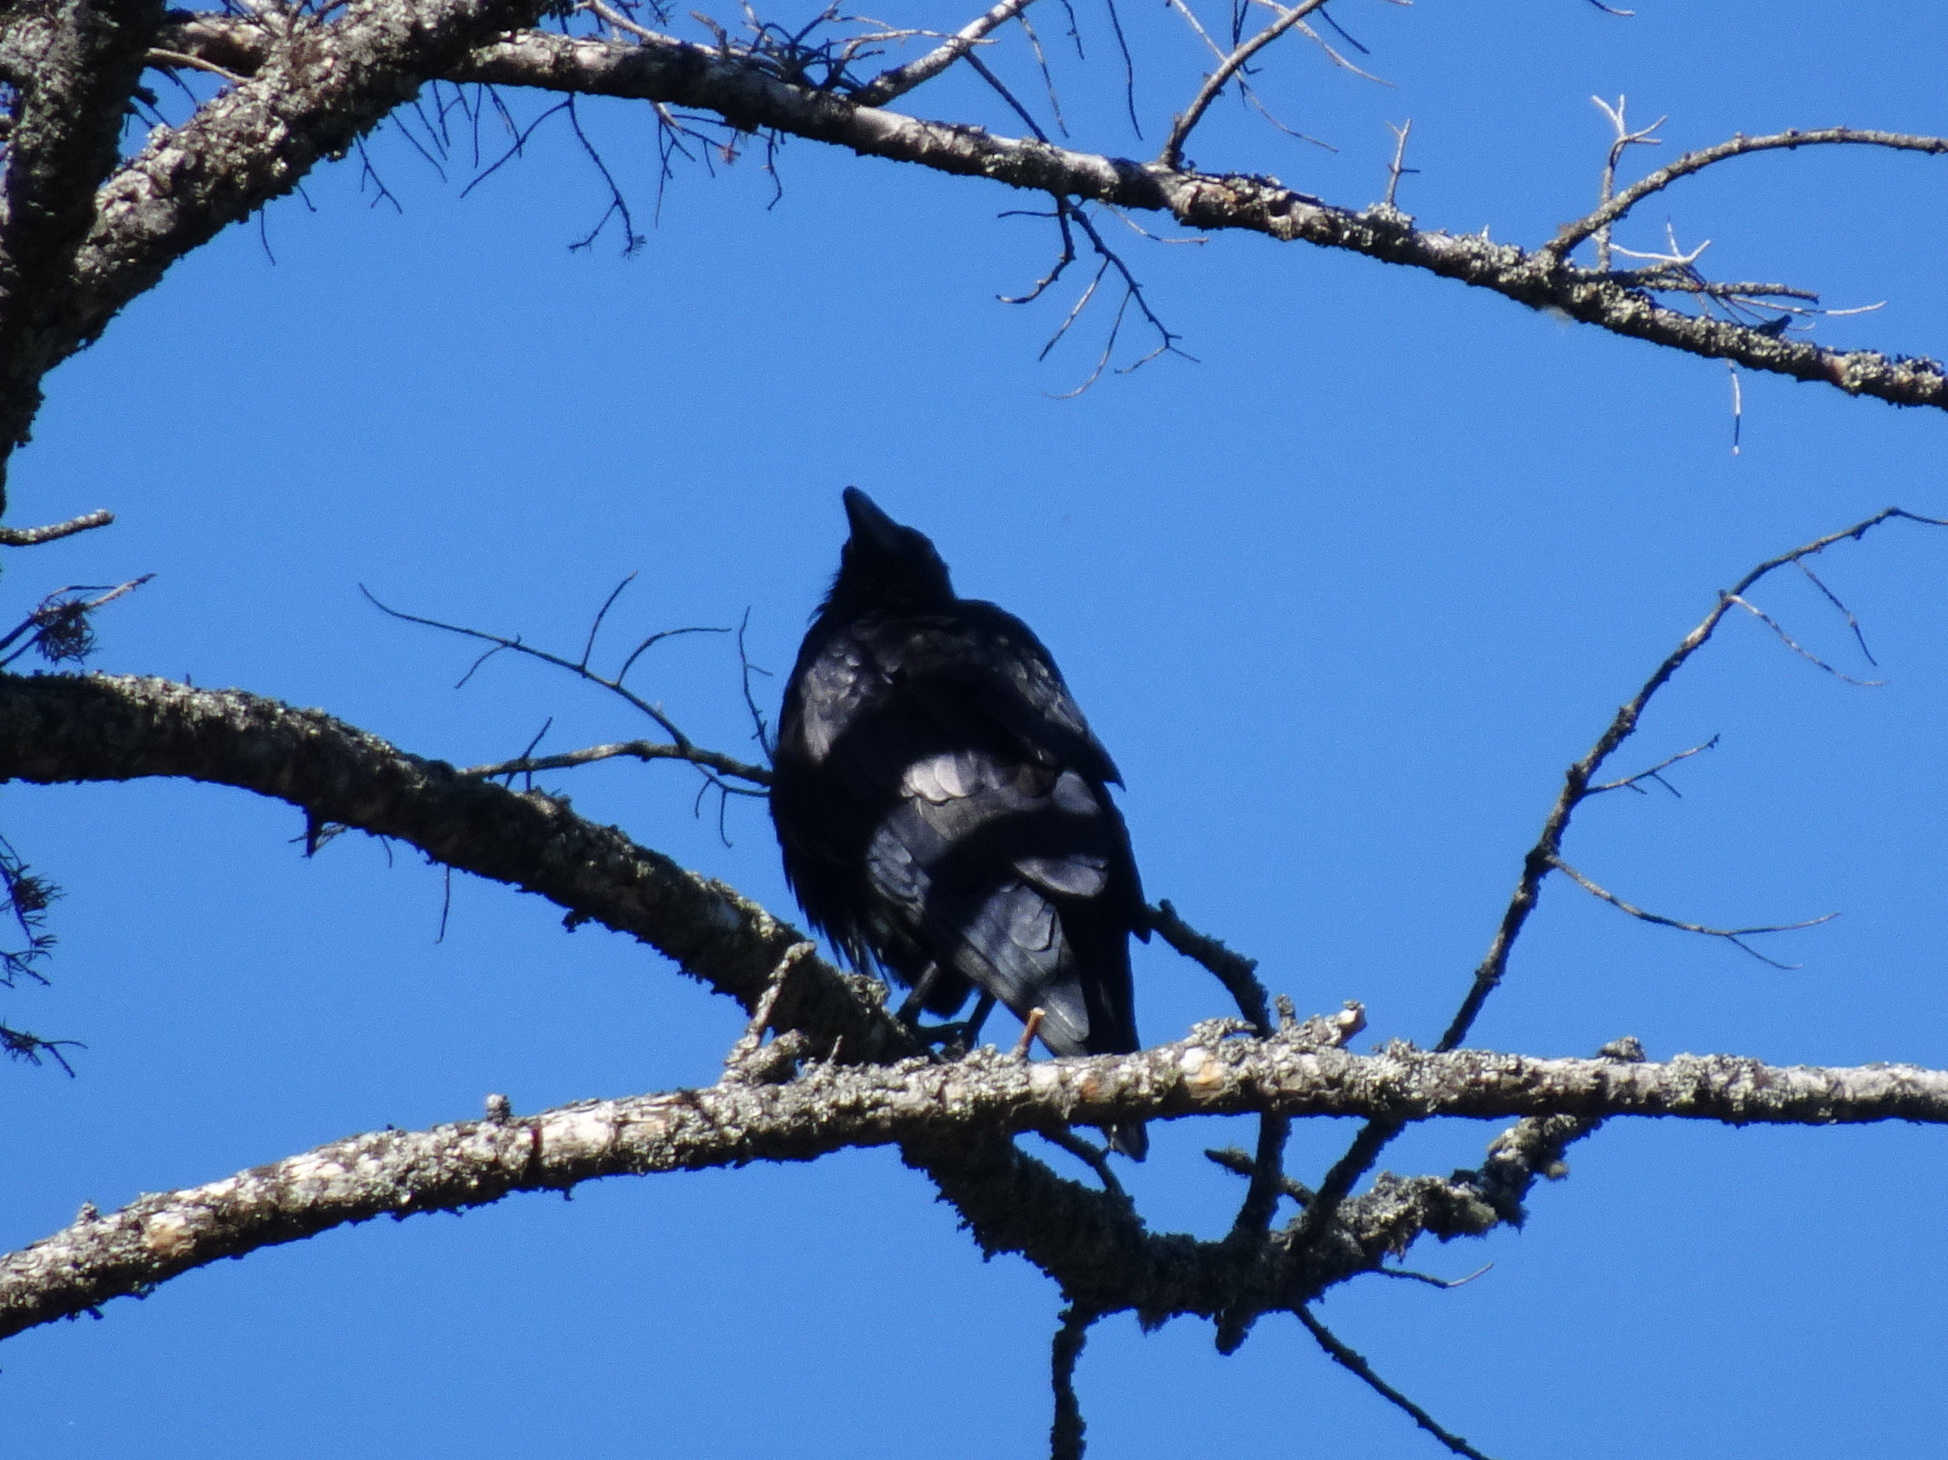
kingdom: Animalia
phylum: Chordata
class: Aves
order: Passeriformes
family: Corvidae
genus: Corvus
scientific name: Corvus corax
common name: Common raven
